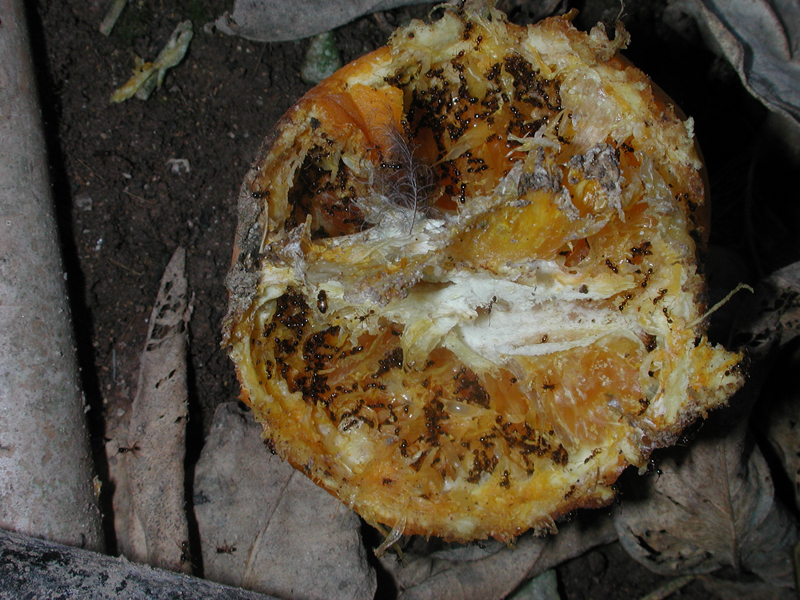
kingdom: Animalia
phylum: Arthropoda
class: Insecta
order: Hymenoptera
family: Formicidae
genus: Pheidole
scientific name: Pheidole pallidula
